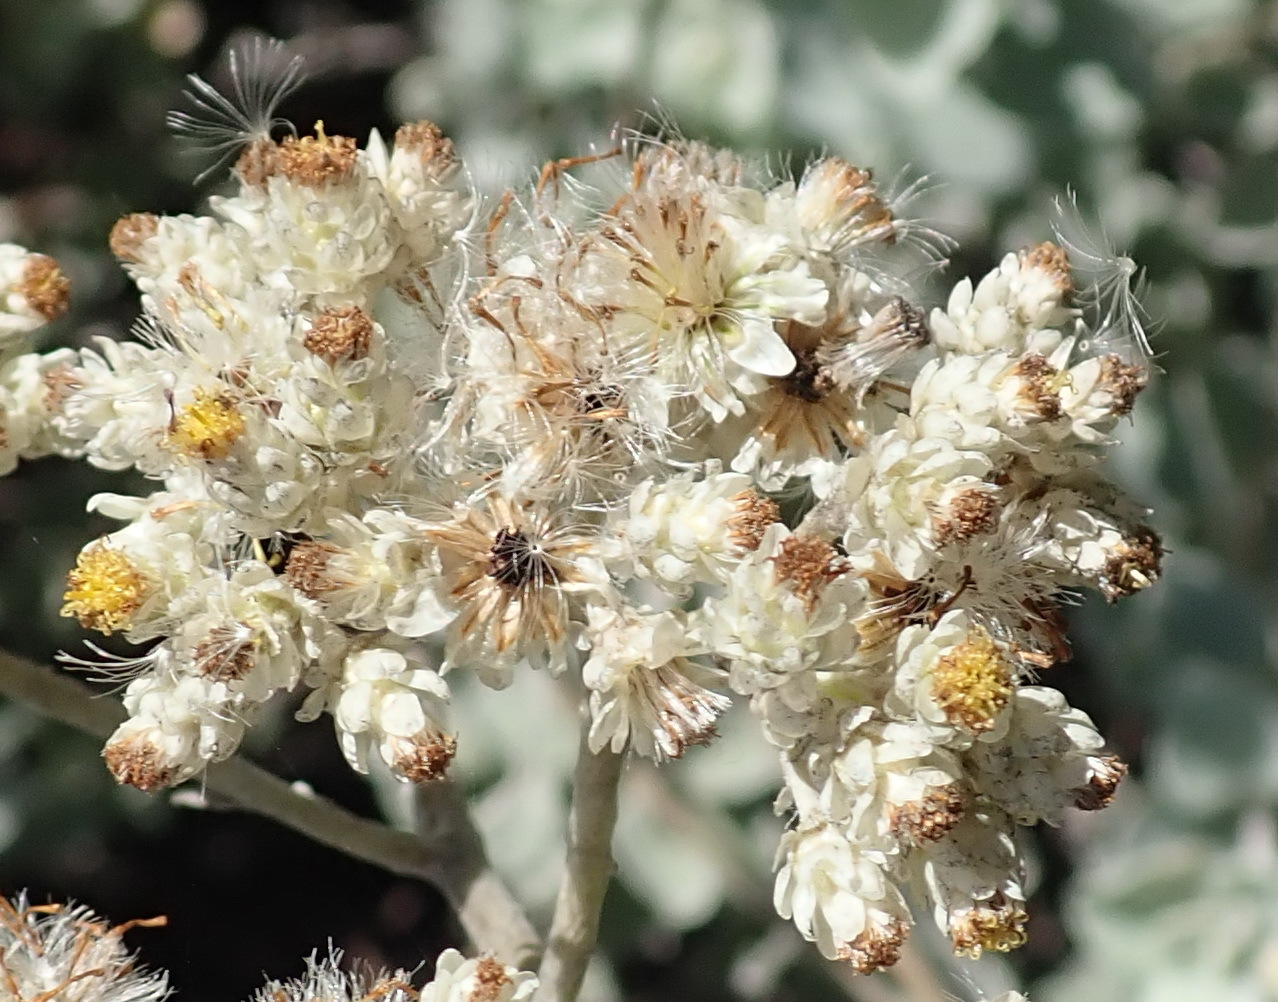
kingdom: Plantae
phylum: Tracheophyta
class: Magnoliopsida
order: Asterales
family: Asteraceae
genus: Helichrysum
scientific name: Helichrysum petiolare
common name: Licorice-plant
